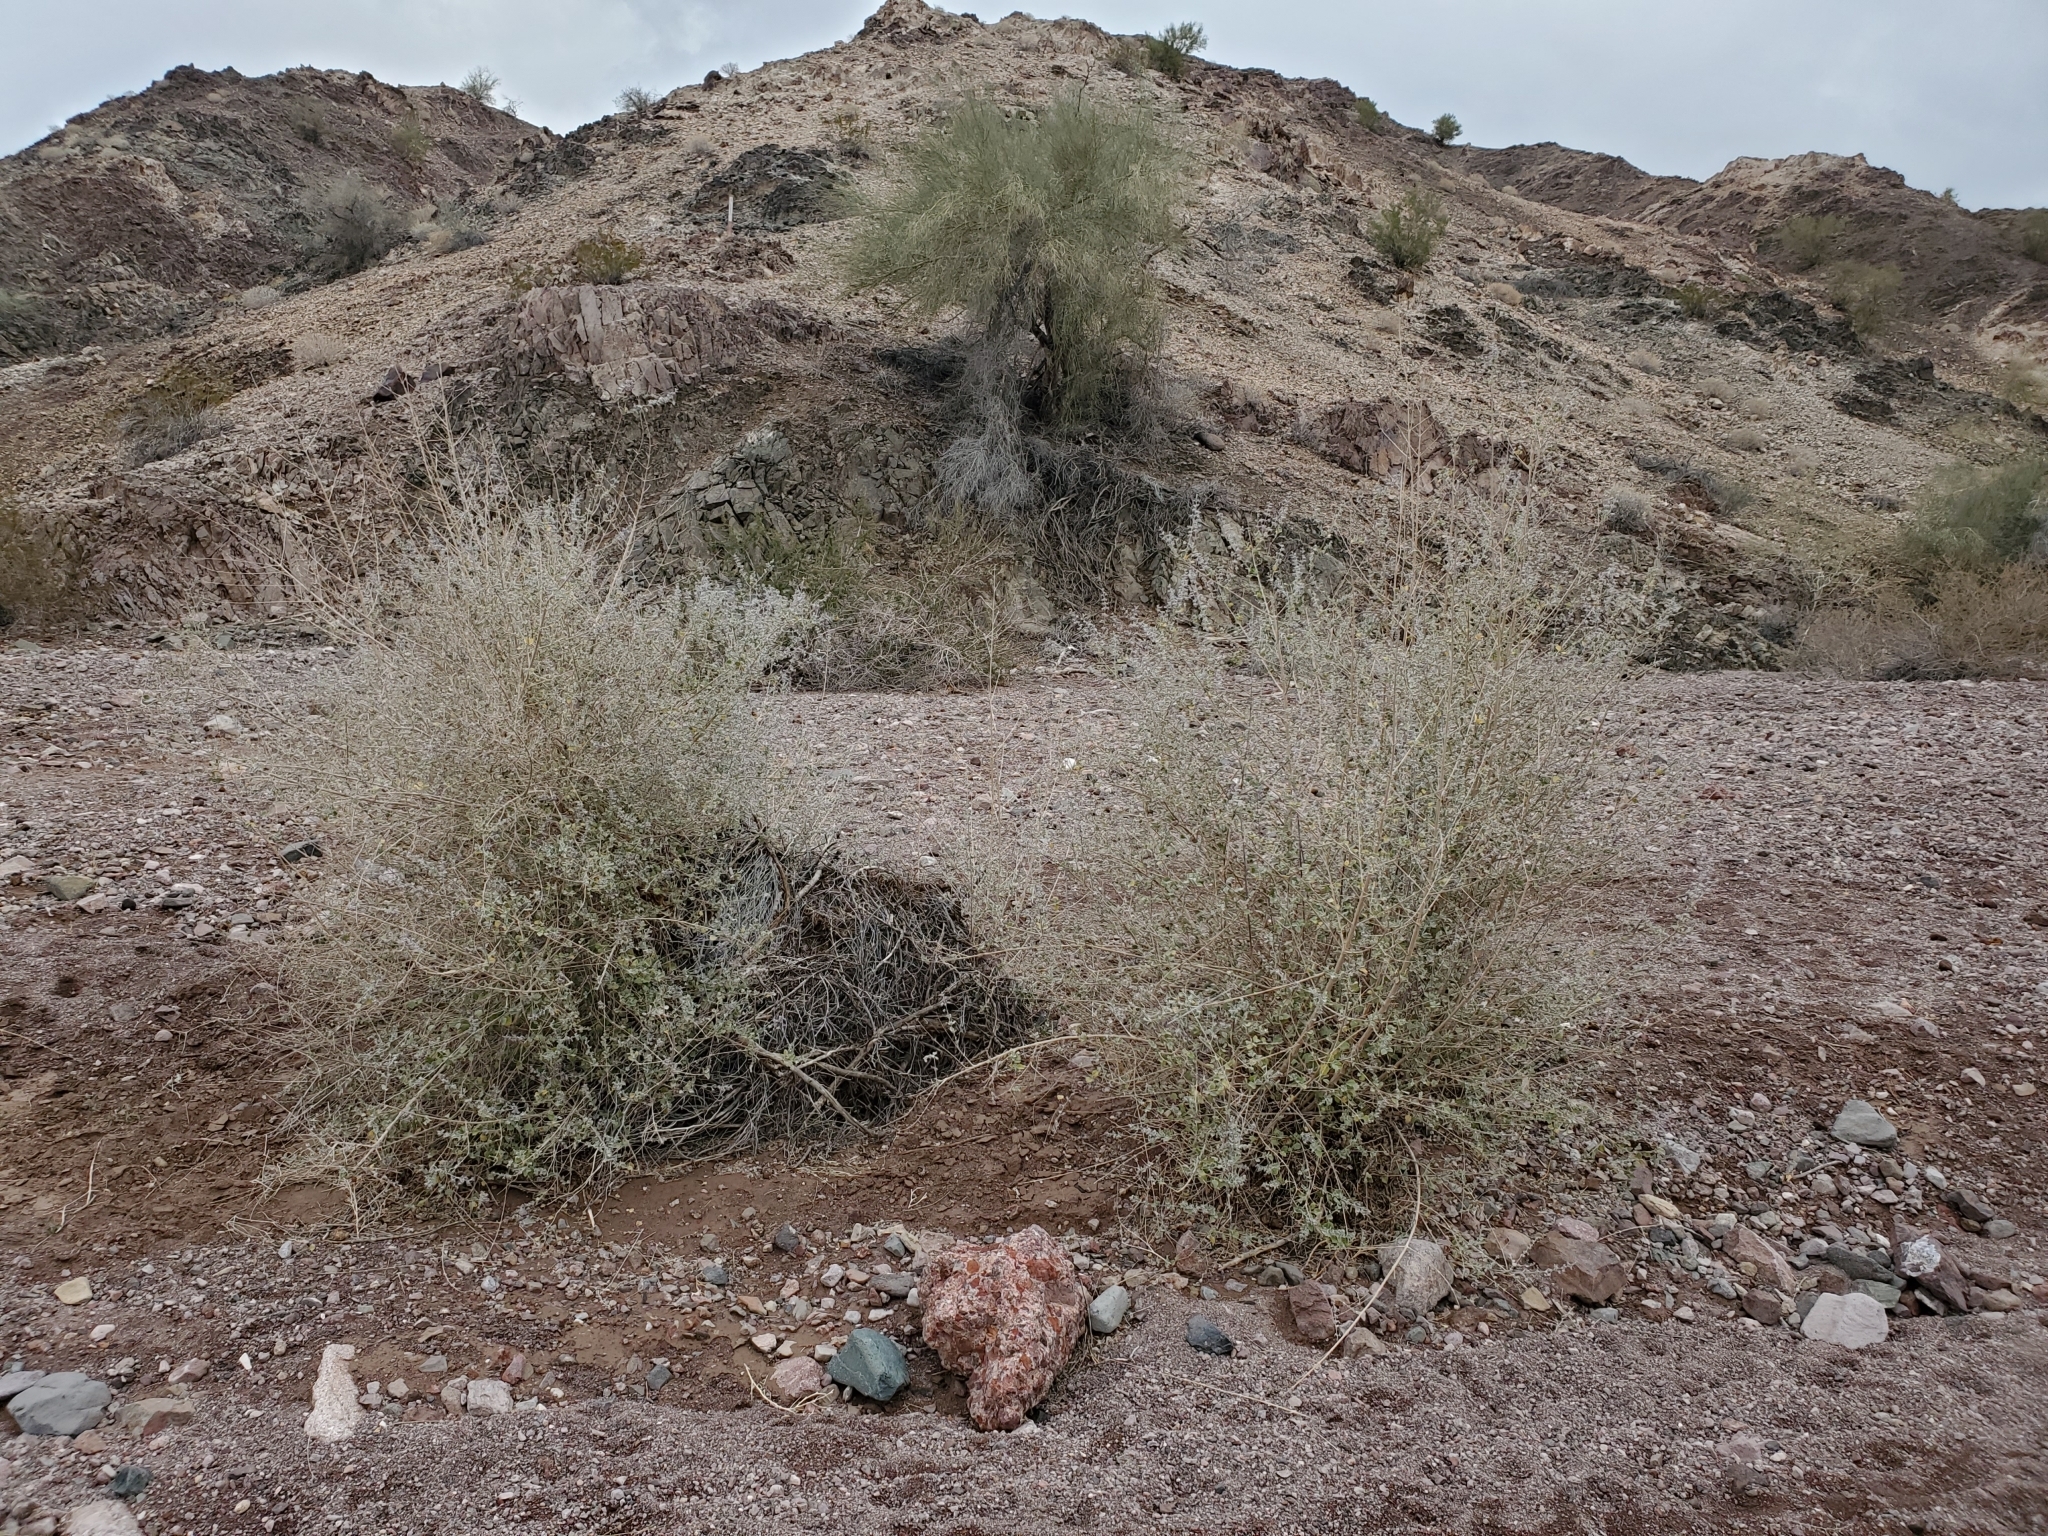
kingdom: Plantae
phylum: Tracheophyta
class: Magnoliopsida
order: Lamiales
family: Lamiaceae
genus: Condea
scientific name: Condea emoryi
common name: Chia
